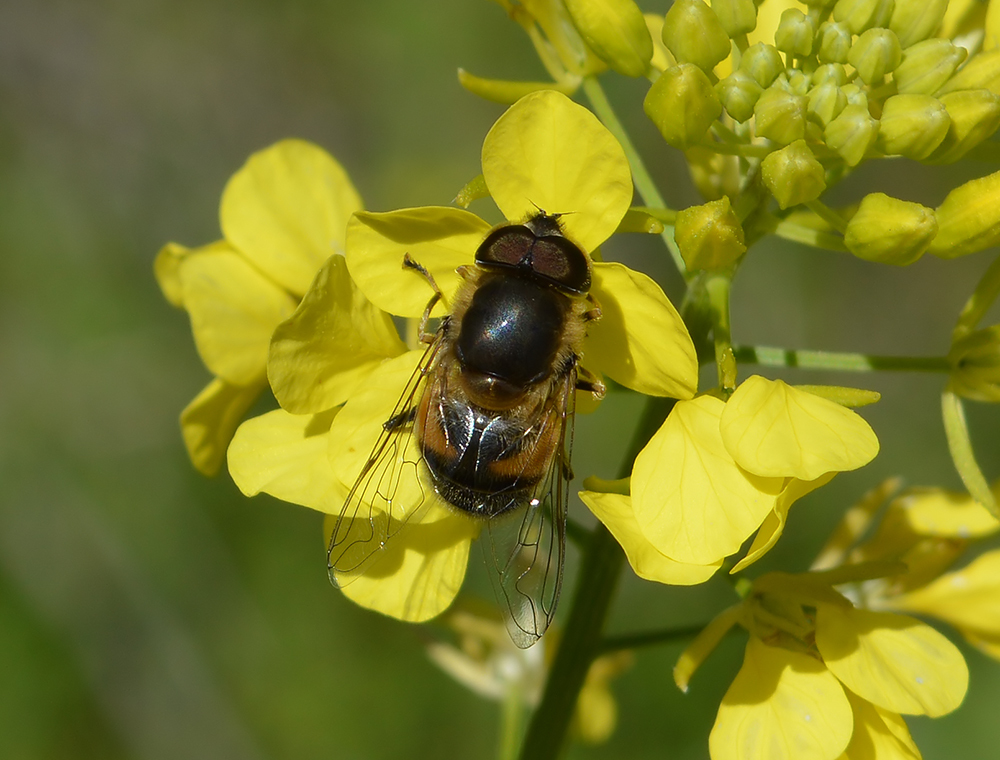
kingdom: Animalia
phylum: Arthropoda
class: Insecta
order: Diptera
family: Syrphidae
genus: Eristalis
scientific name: Eristalis pertinax
